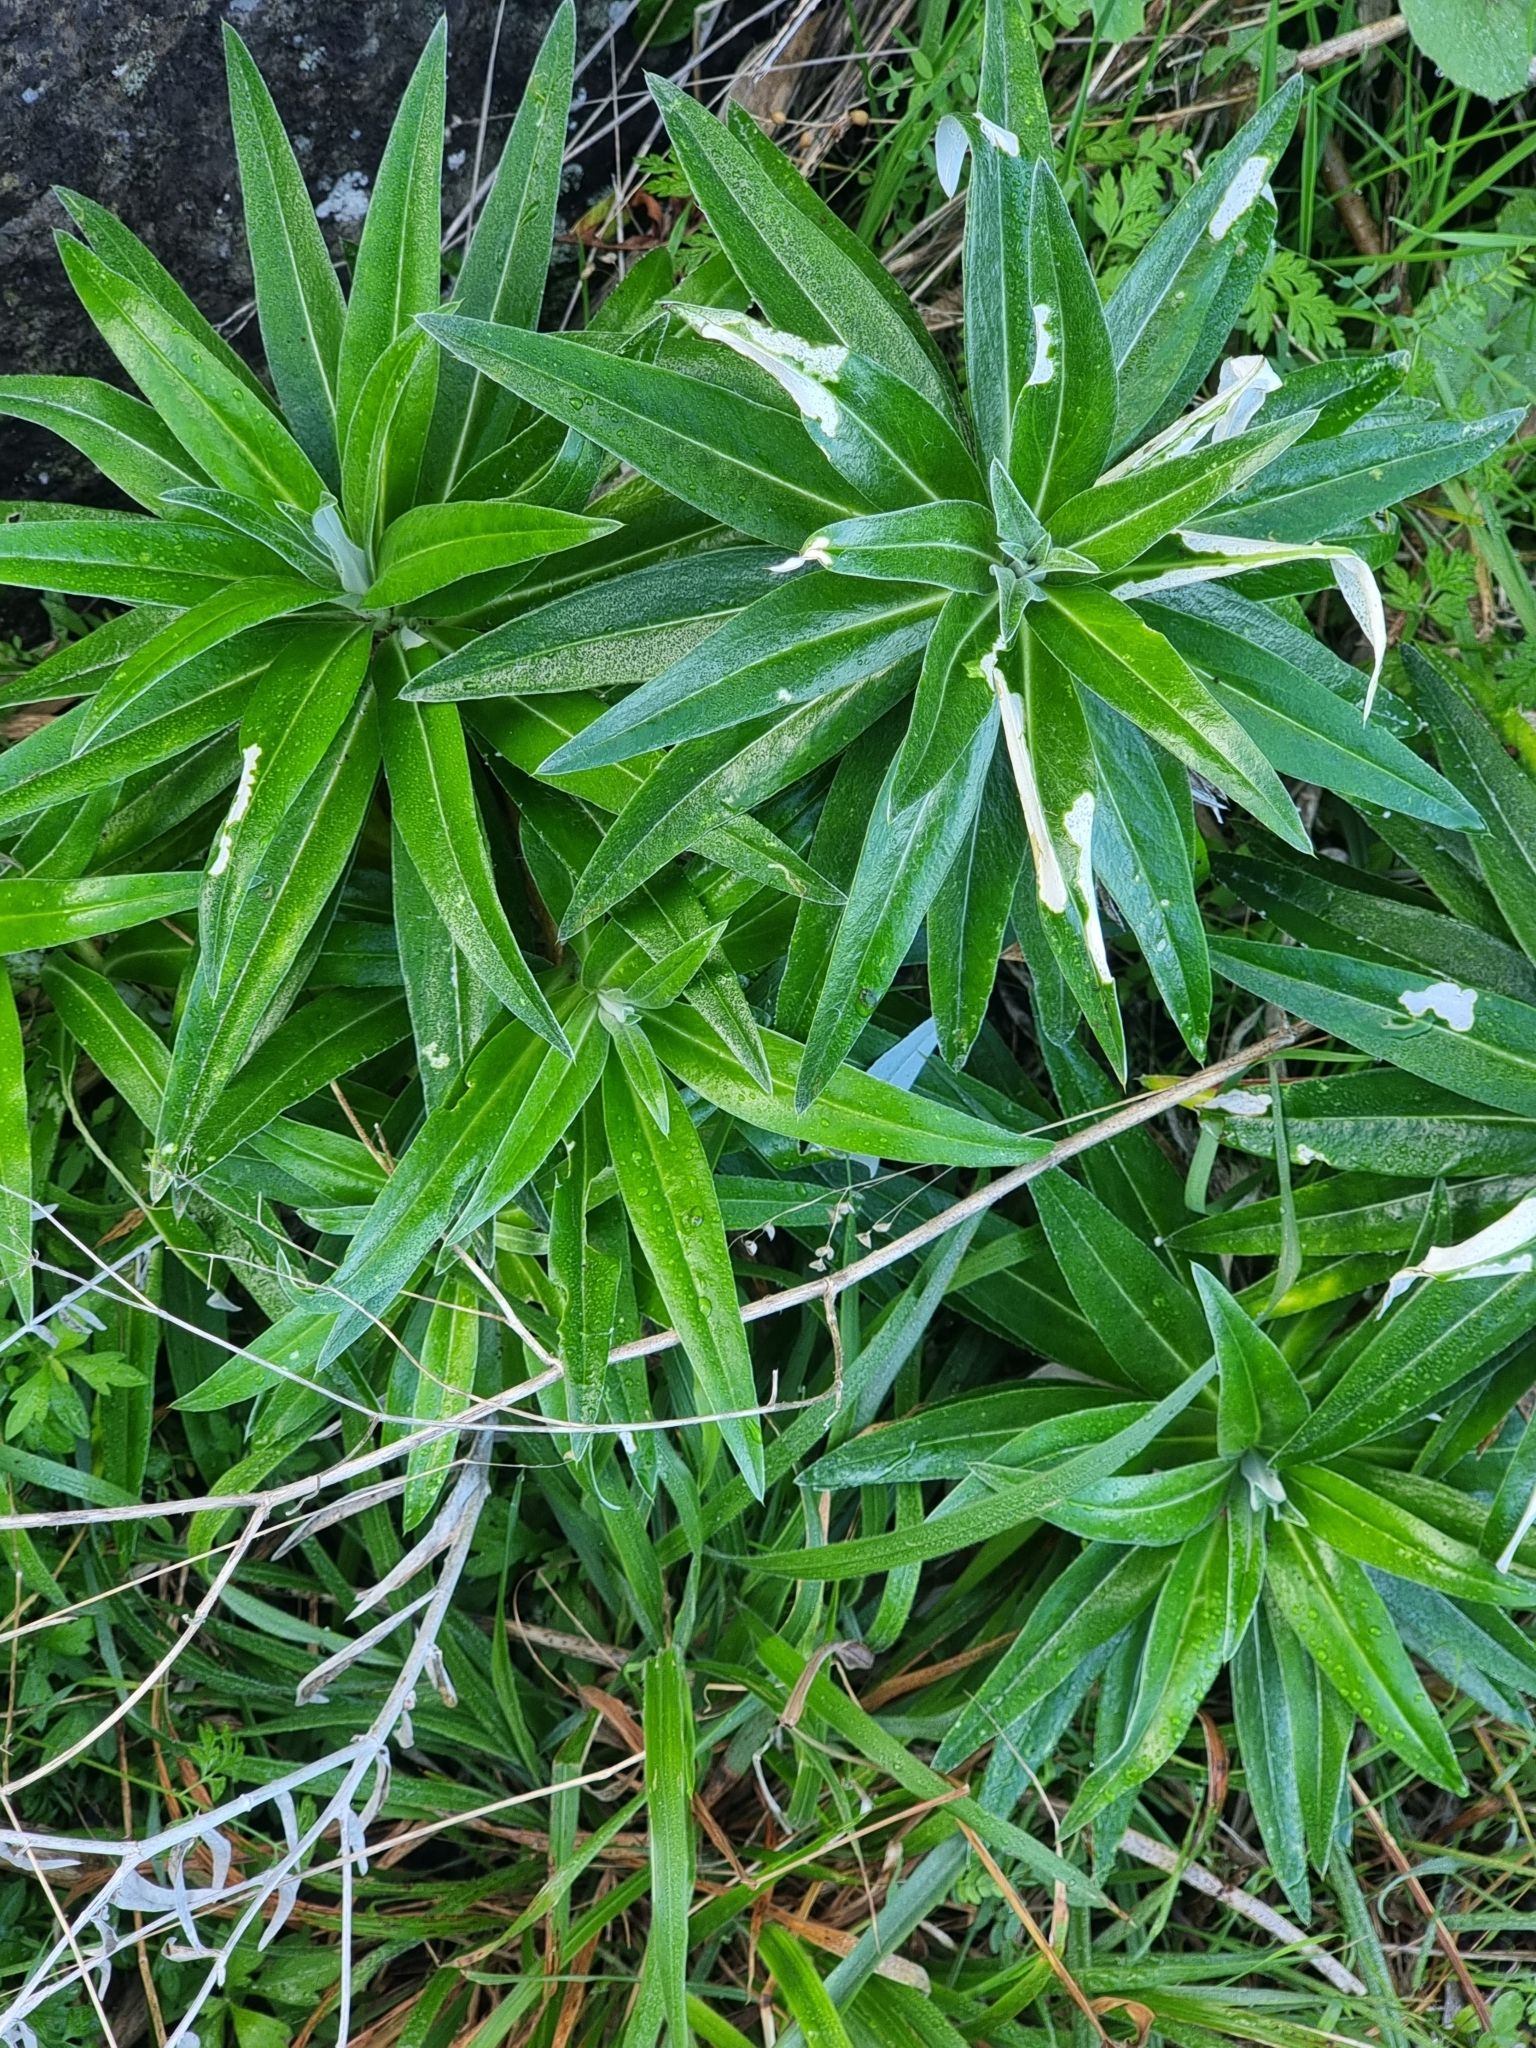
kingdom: Plantae
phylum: Tracheophyta
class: Magnoliopsida
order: Asterales
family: Asteraceae
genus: Carlina
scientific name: Carlina salicifolia
